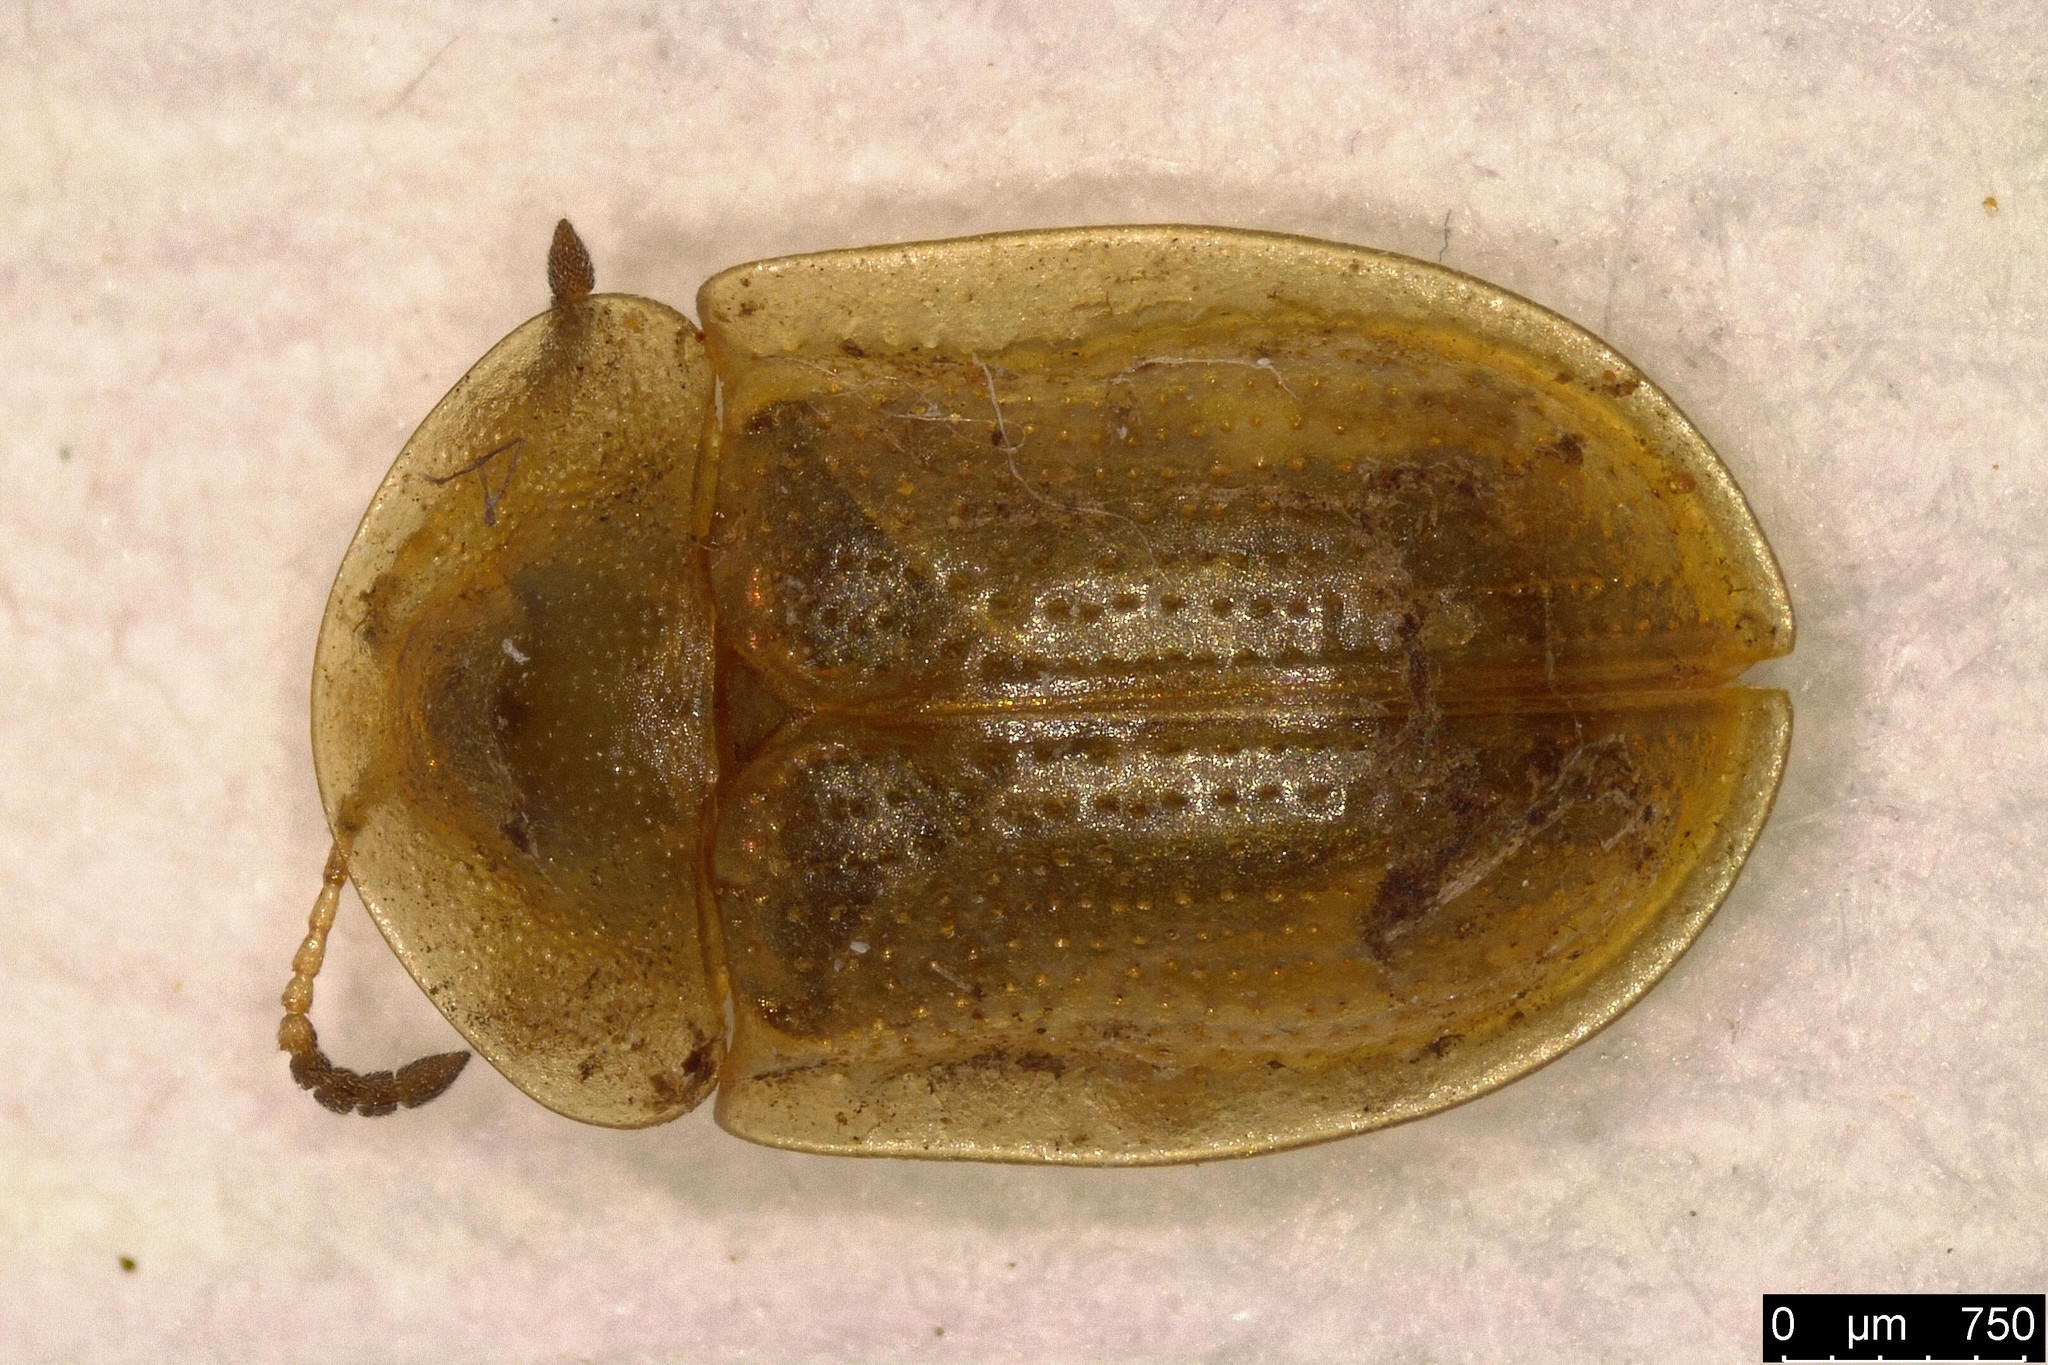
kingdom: Animalia
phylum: Arthropoda
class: Insecta
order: Coleoptera
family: Chrysomelidae
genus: Cassida
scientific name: Cassida flaveola
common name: Pale tortoise beetle
